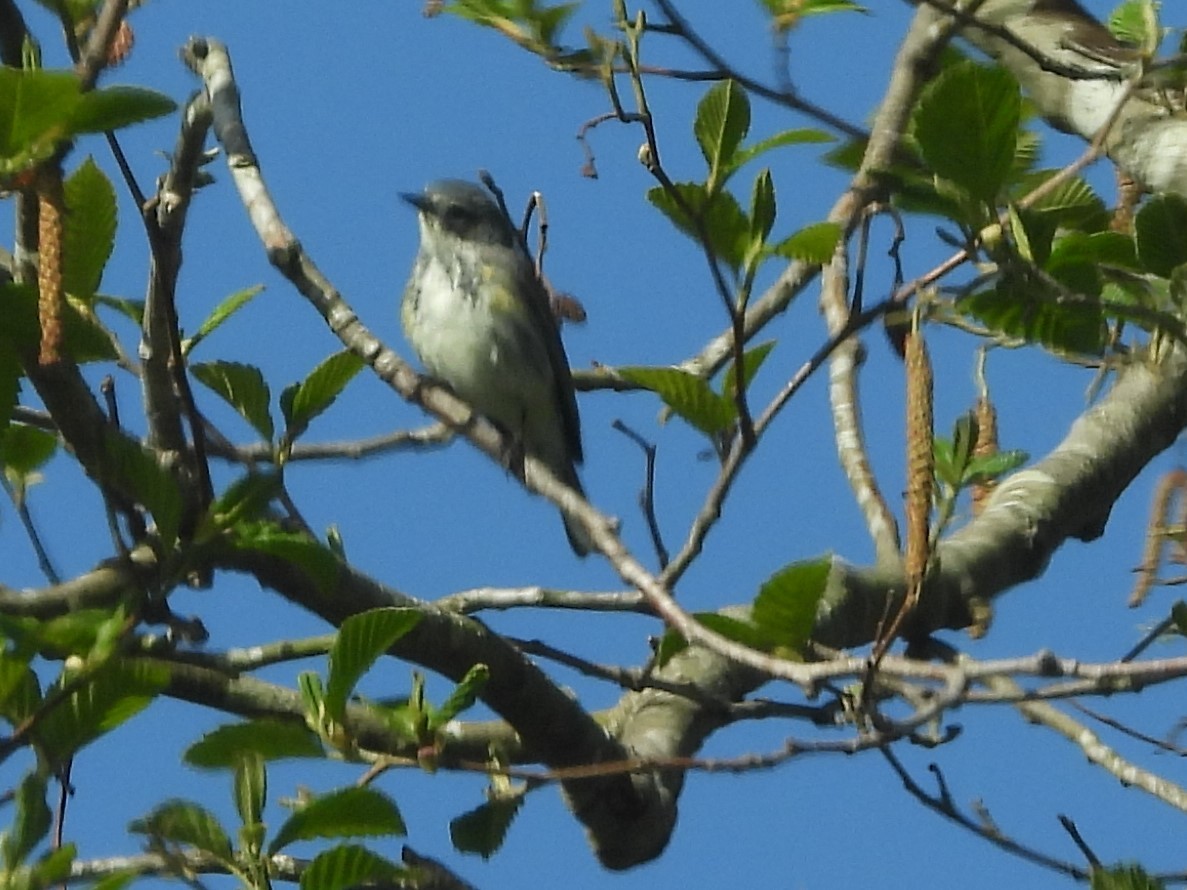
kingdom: Animalia
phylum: Chordata
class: Aves
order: Passeriformes
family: Parulidae
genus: Setophaga
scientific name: Setophaga coronata
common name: Myrtle warbler
